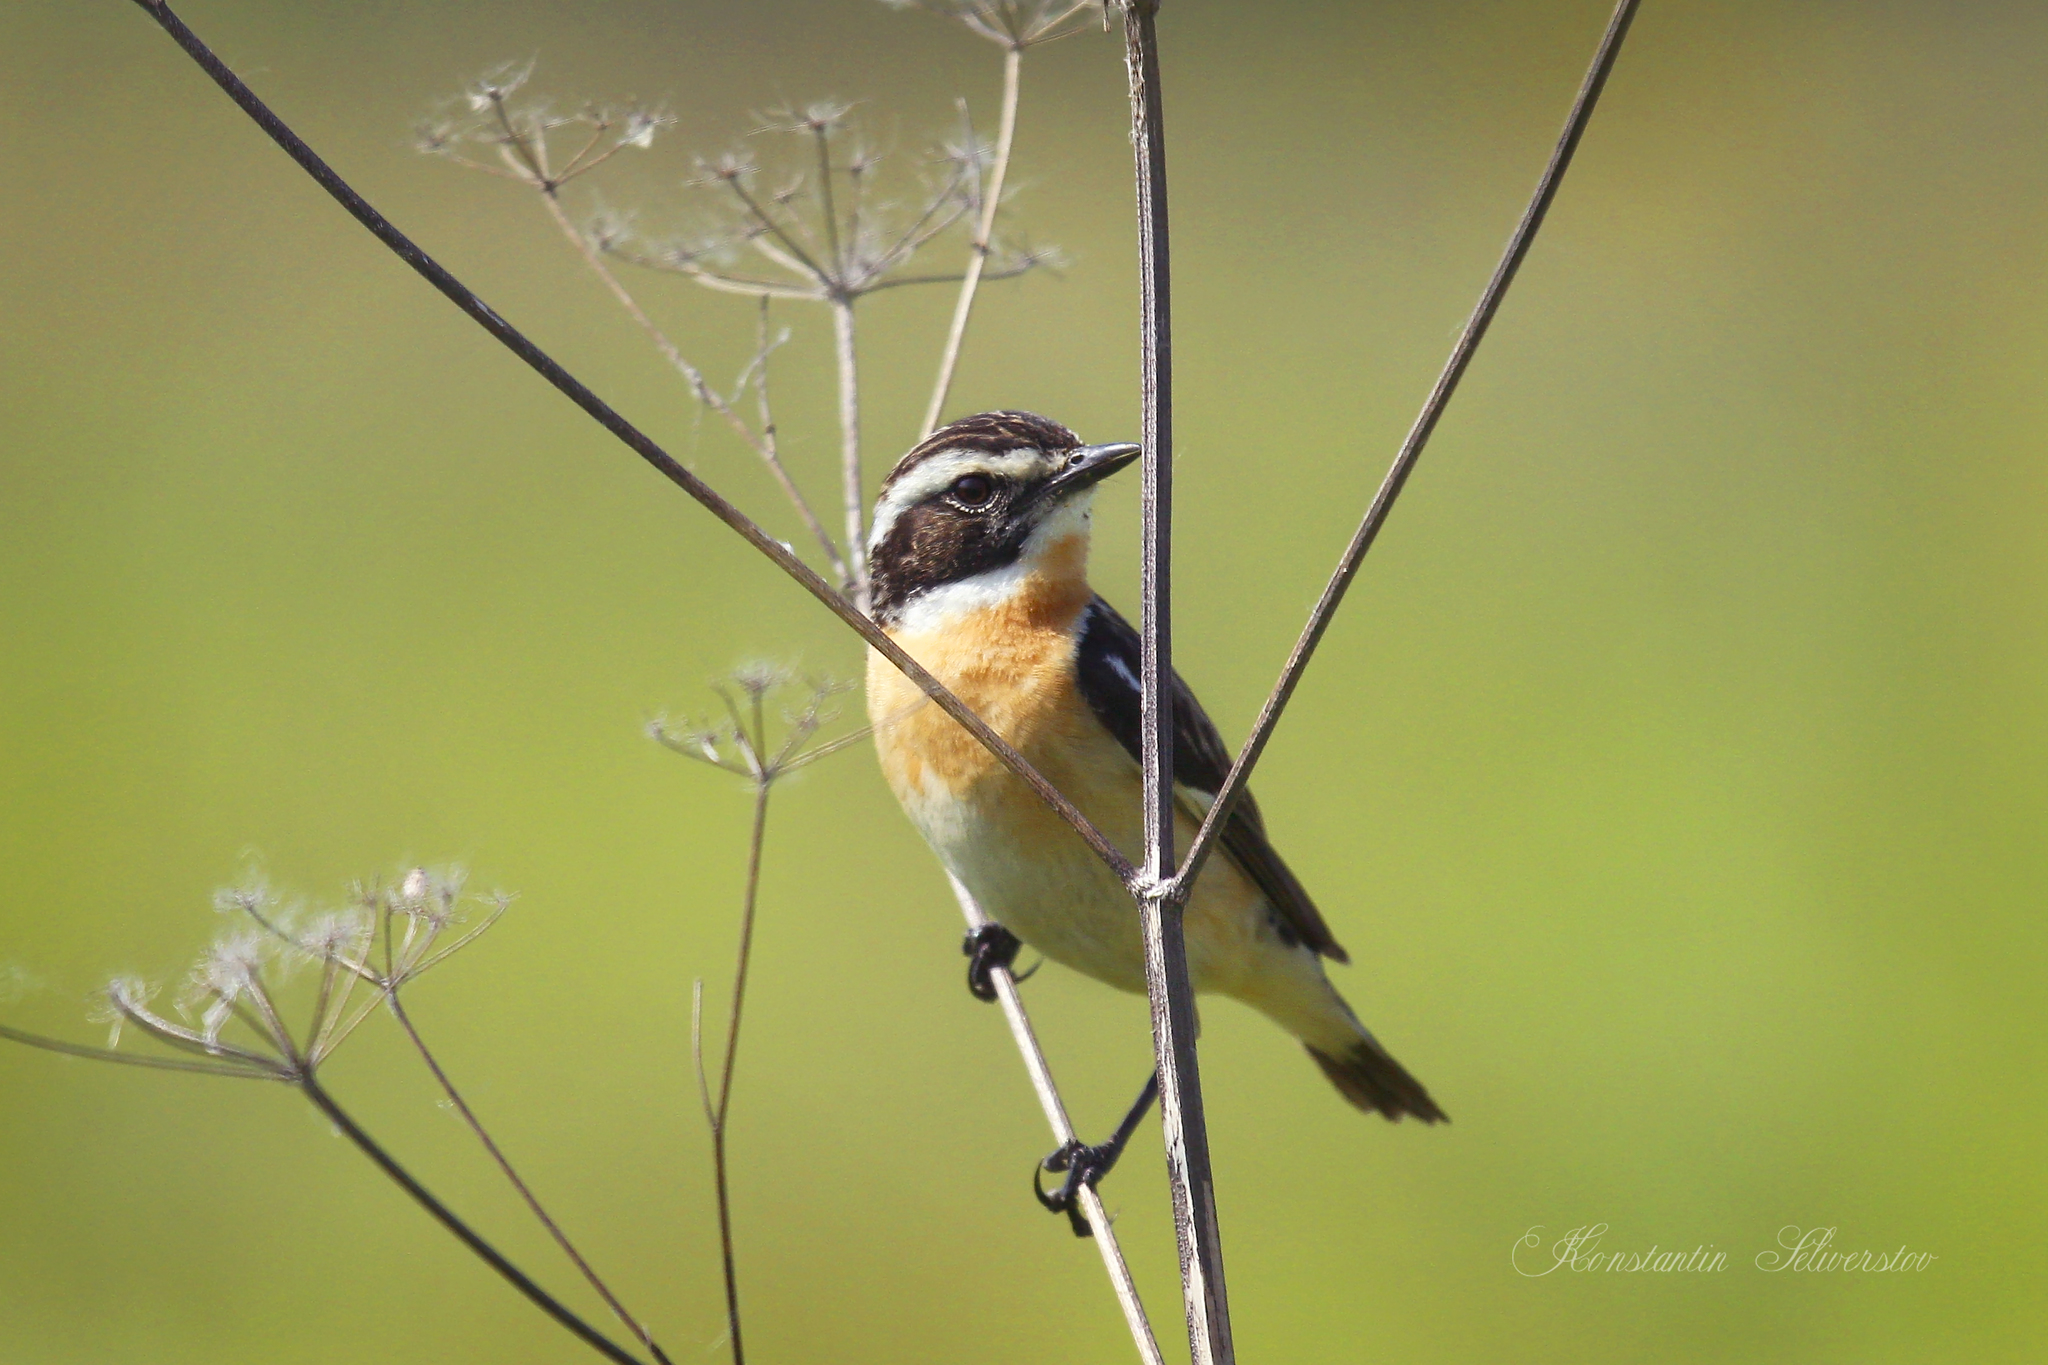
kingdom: Animalia
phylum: Chordata
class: Aves
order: Passeriformes
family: Muscicapidae
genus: Saxicola
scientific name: Saxicola rubetra
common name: Whinchat
